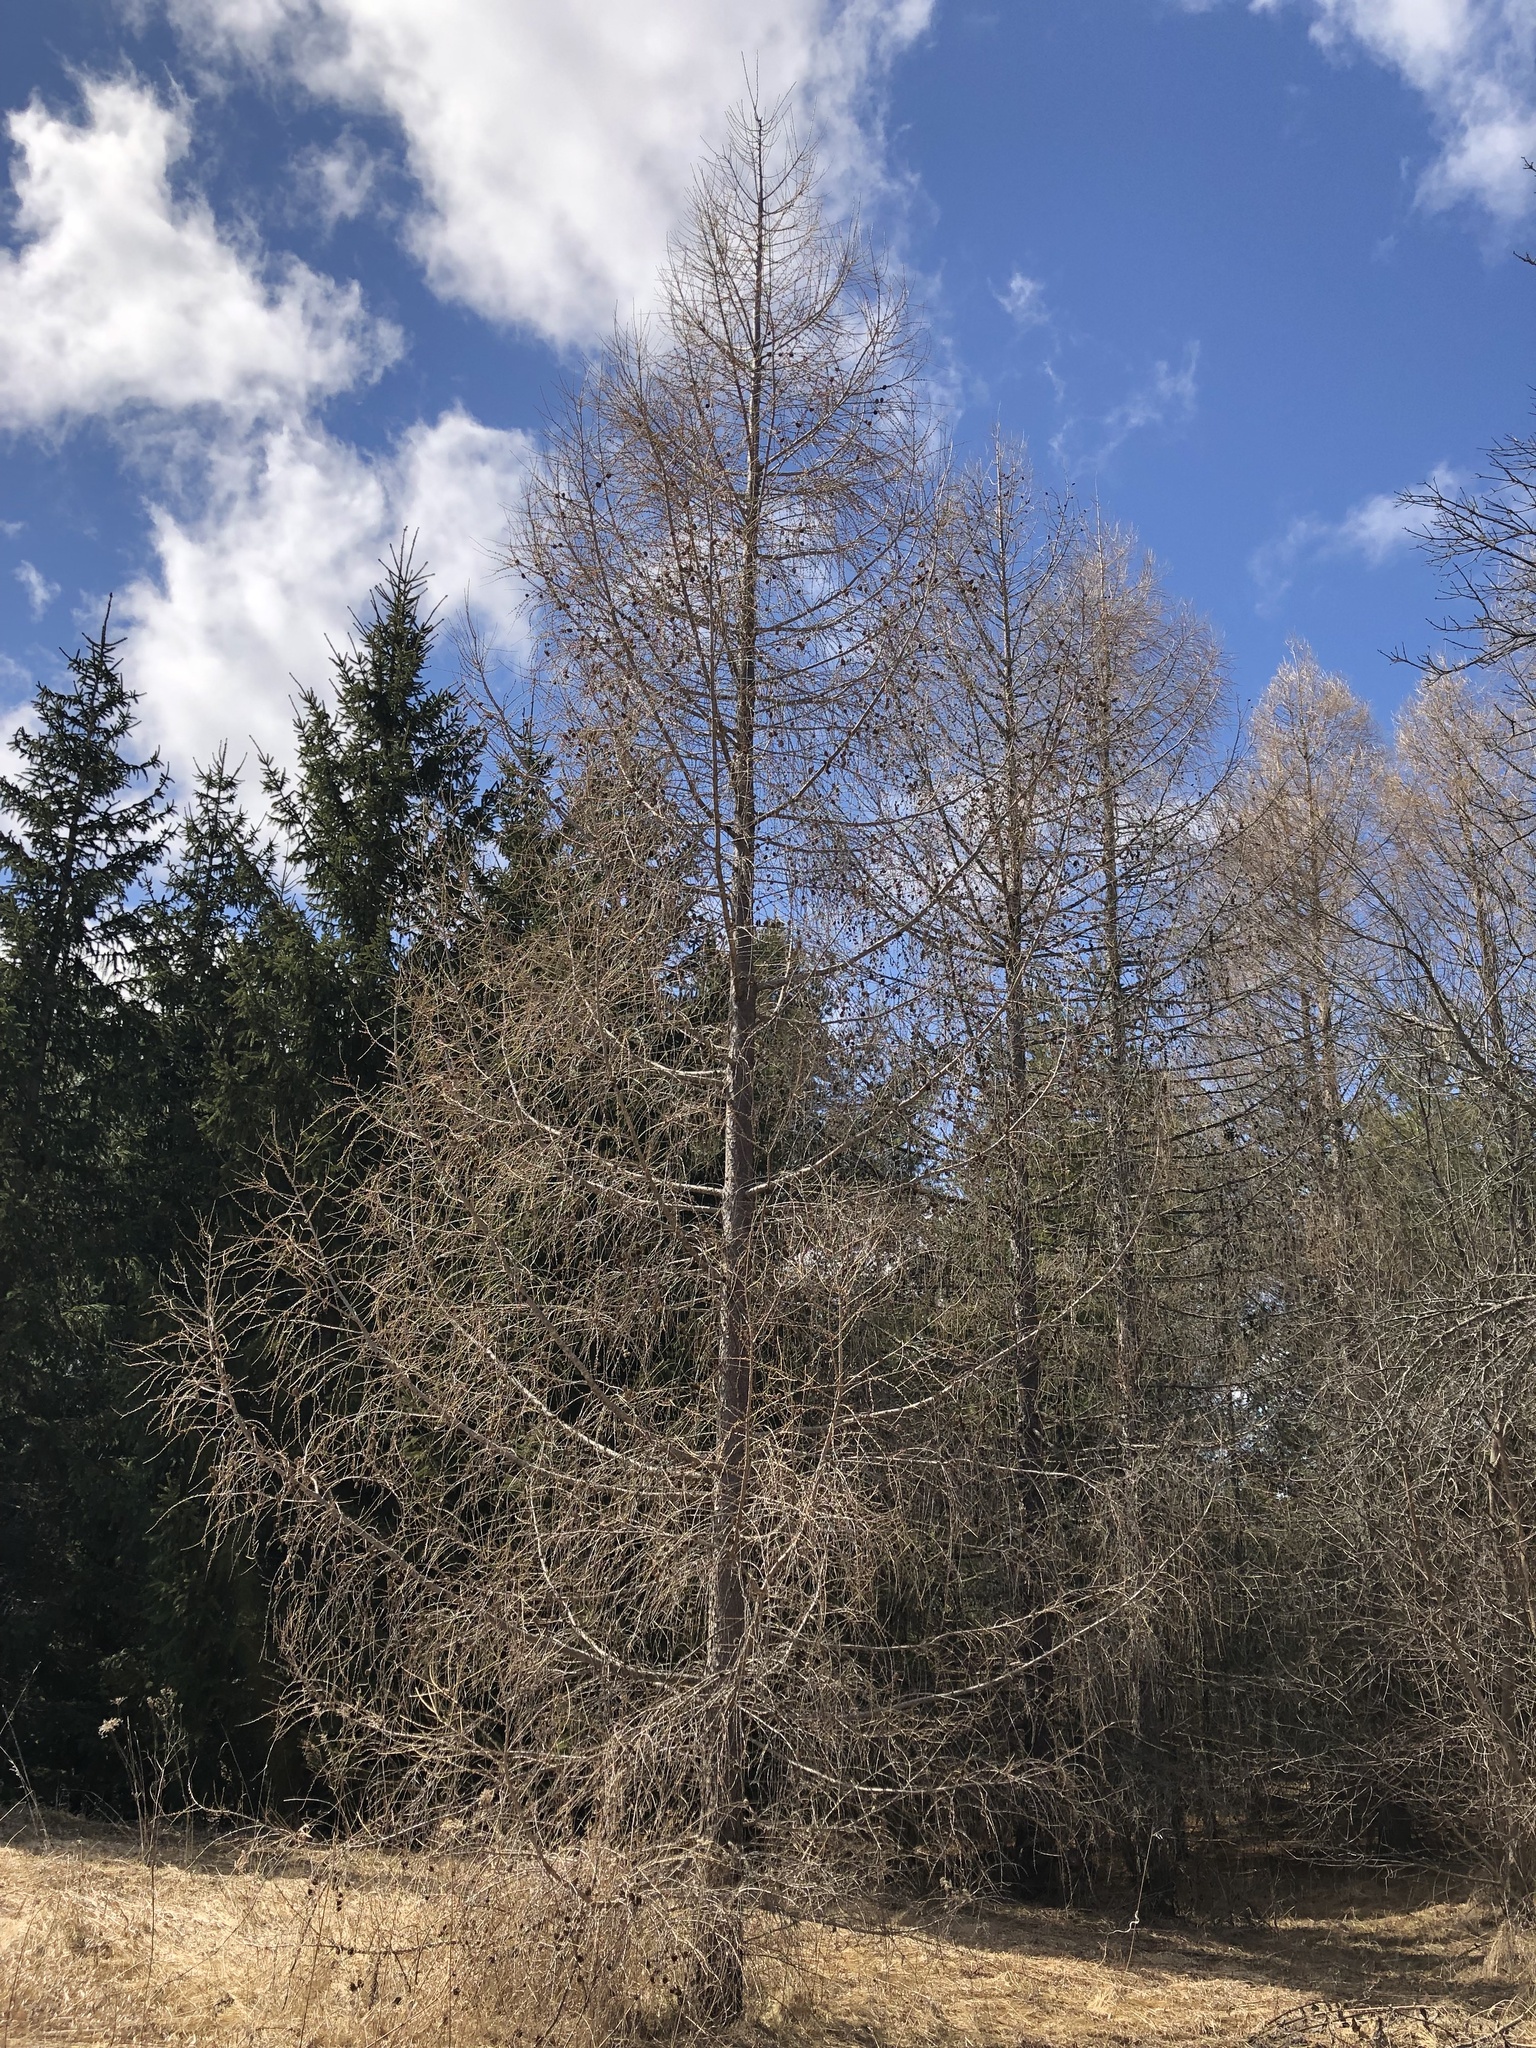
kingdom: Plantae
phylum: Tracheophyta
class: Pinopsida
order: Pinales
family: Pinaceae
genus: Larix
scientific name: Larix laricina
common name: American larch
